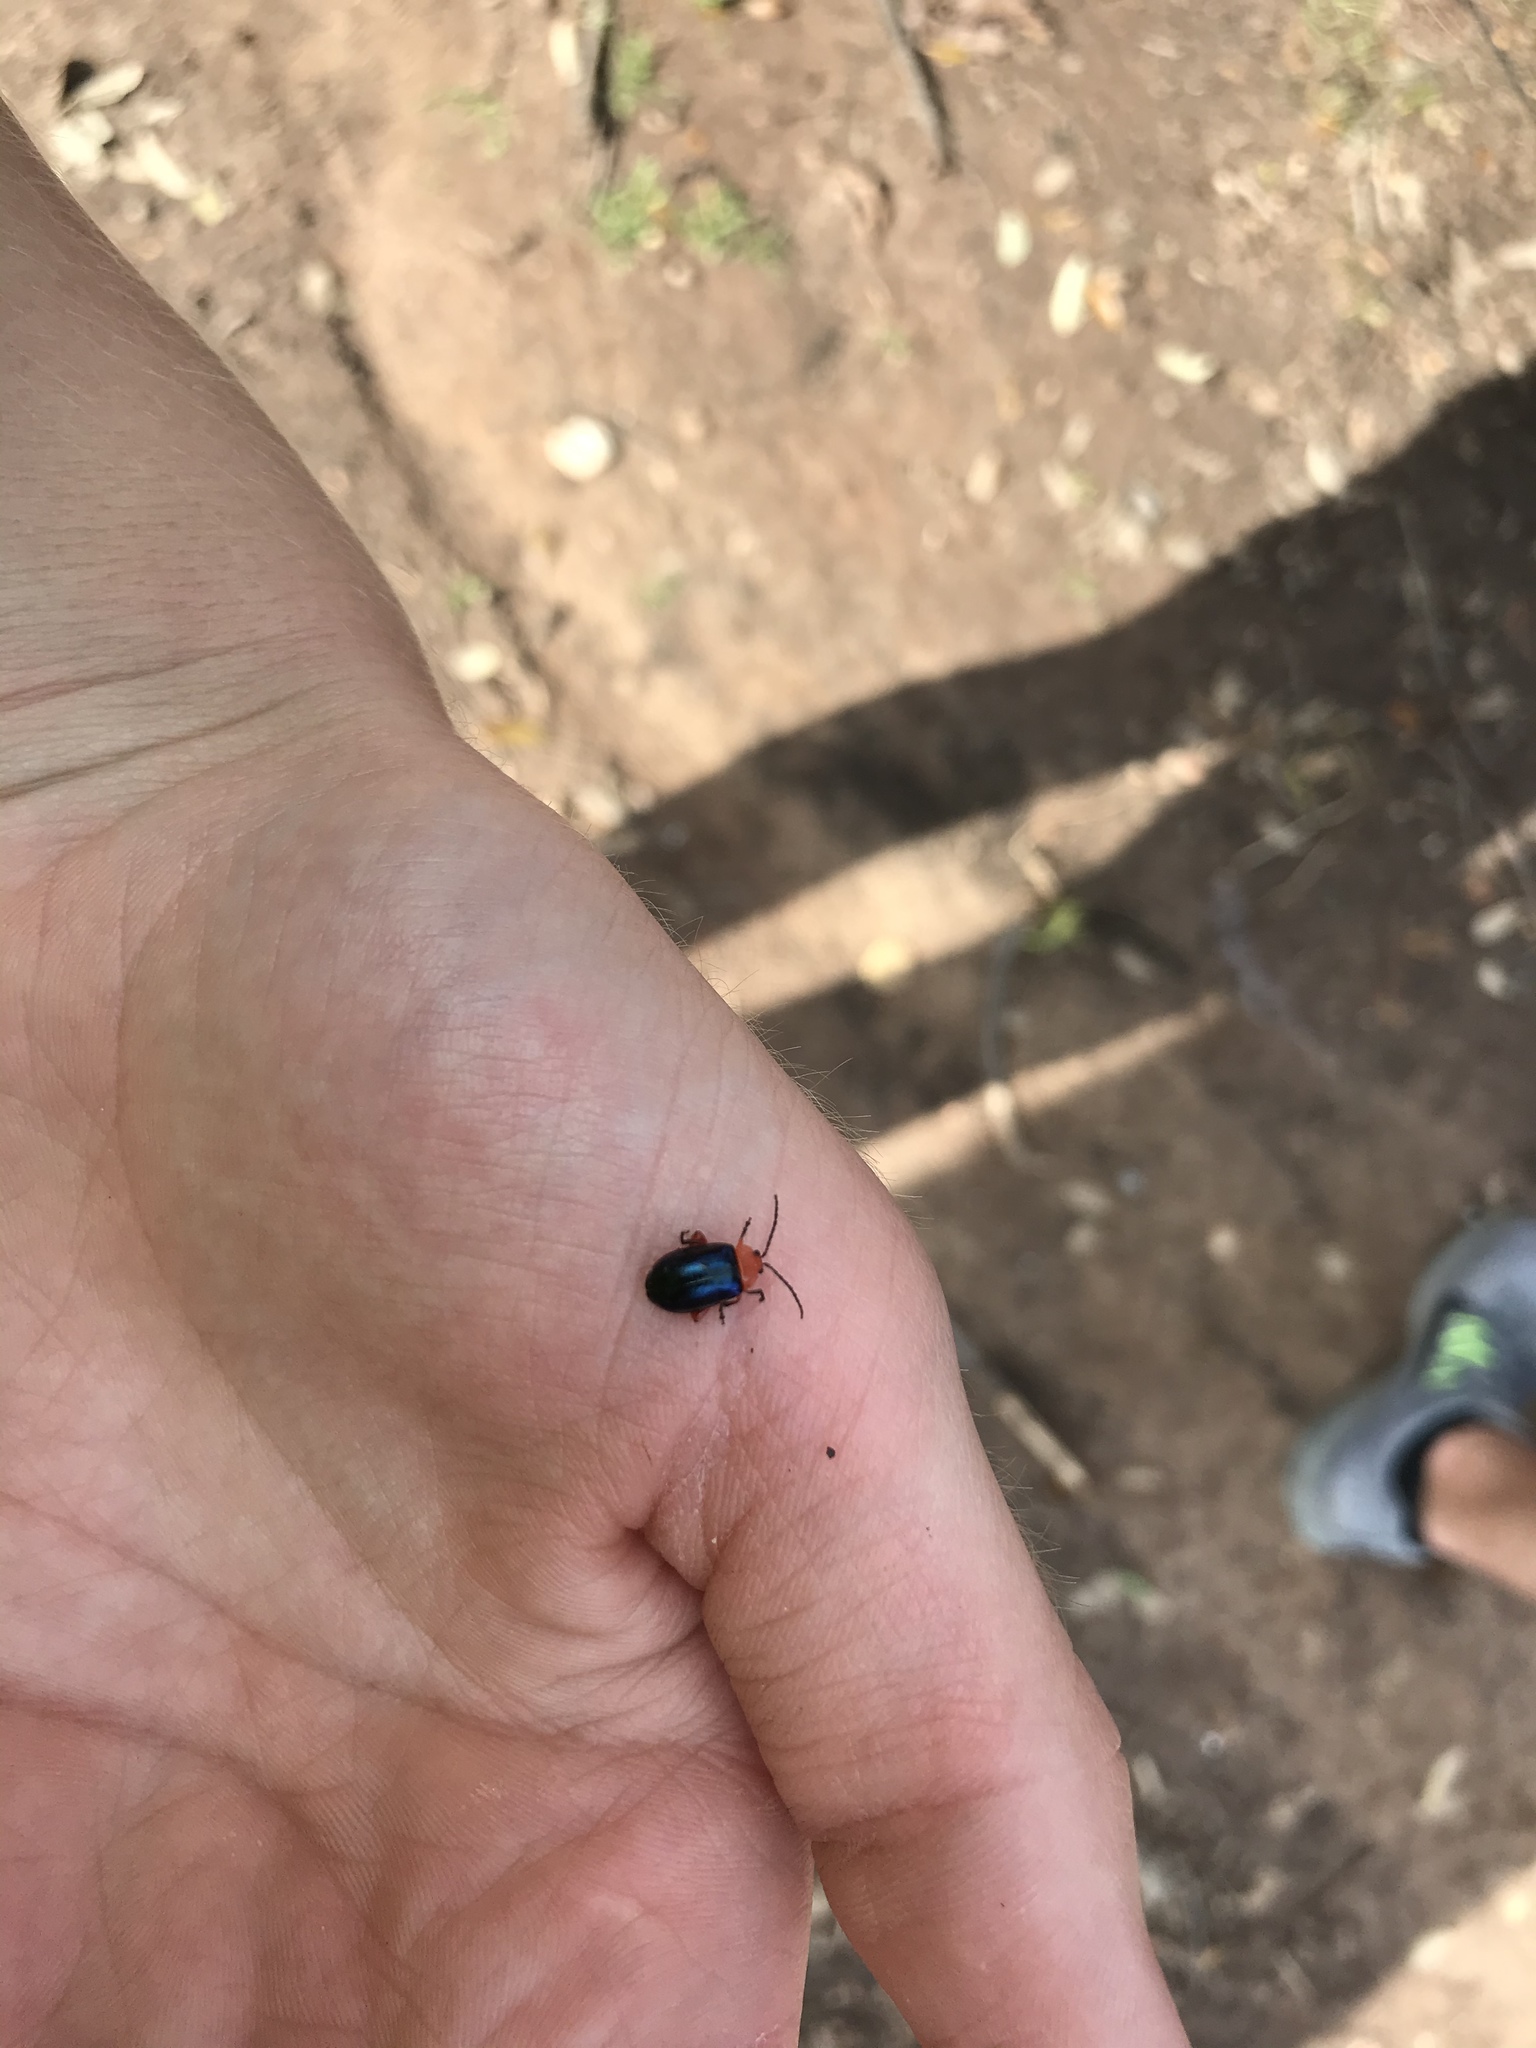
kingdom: Animalia
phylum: Arthropoda
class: Insecta
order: Coleoptera
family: Chrysomelidae
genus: Asphaera
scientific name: Asphaera lustrans
